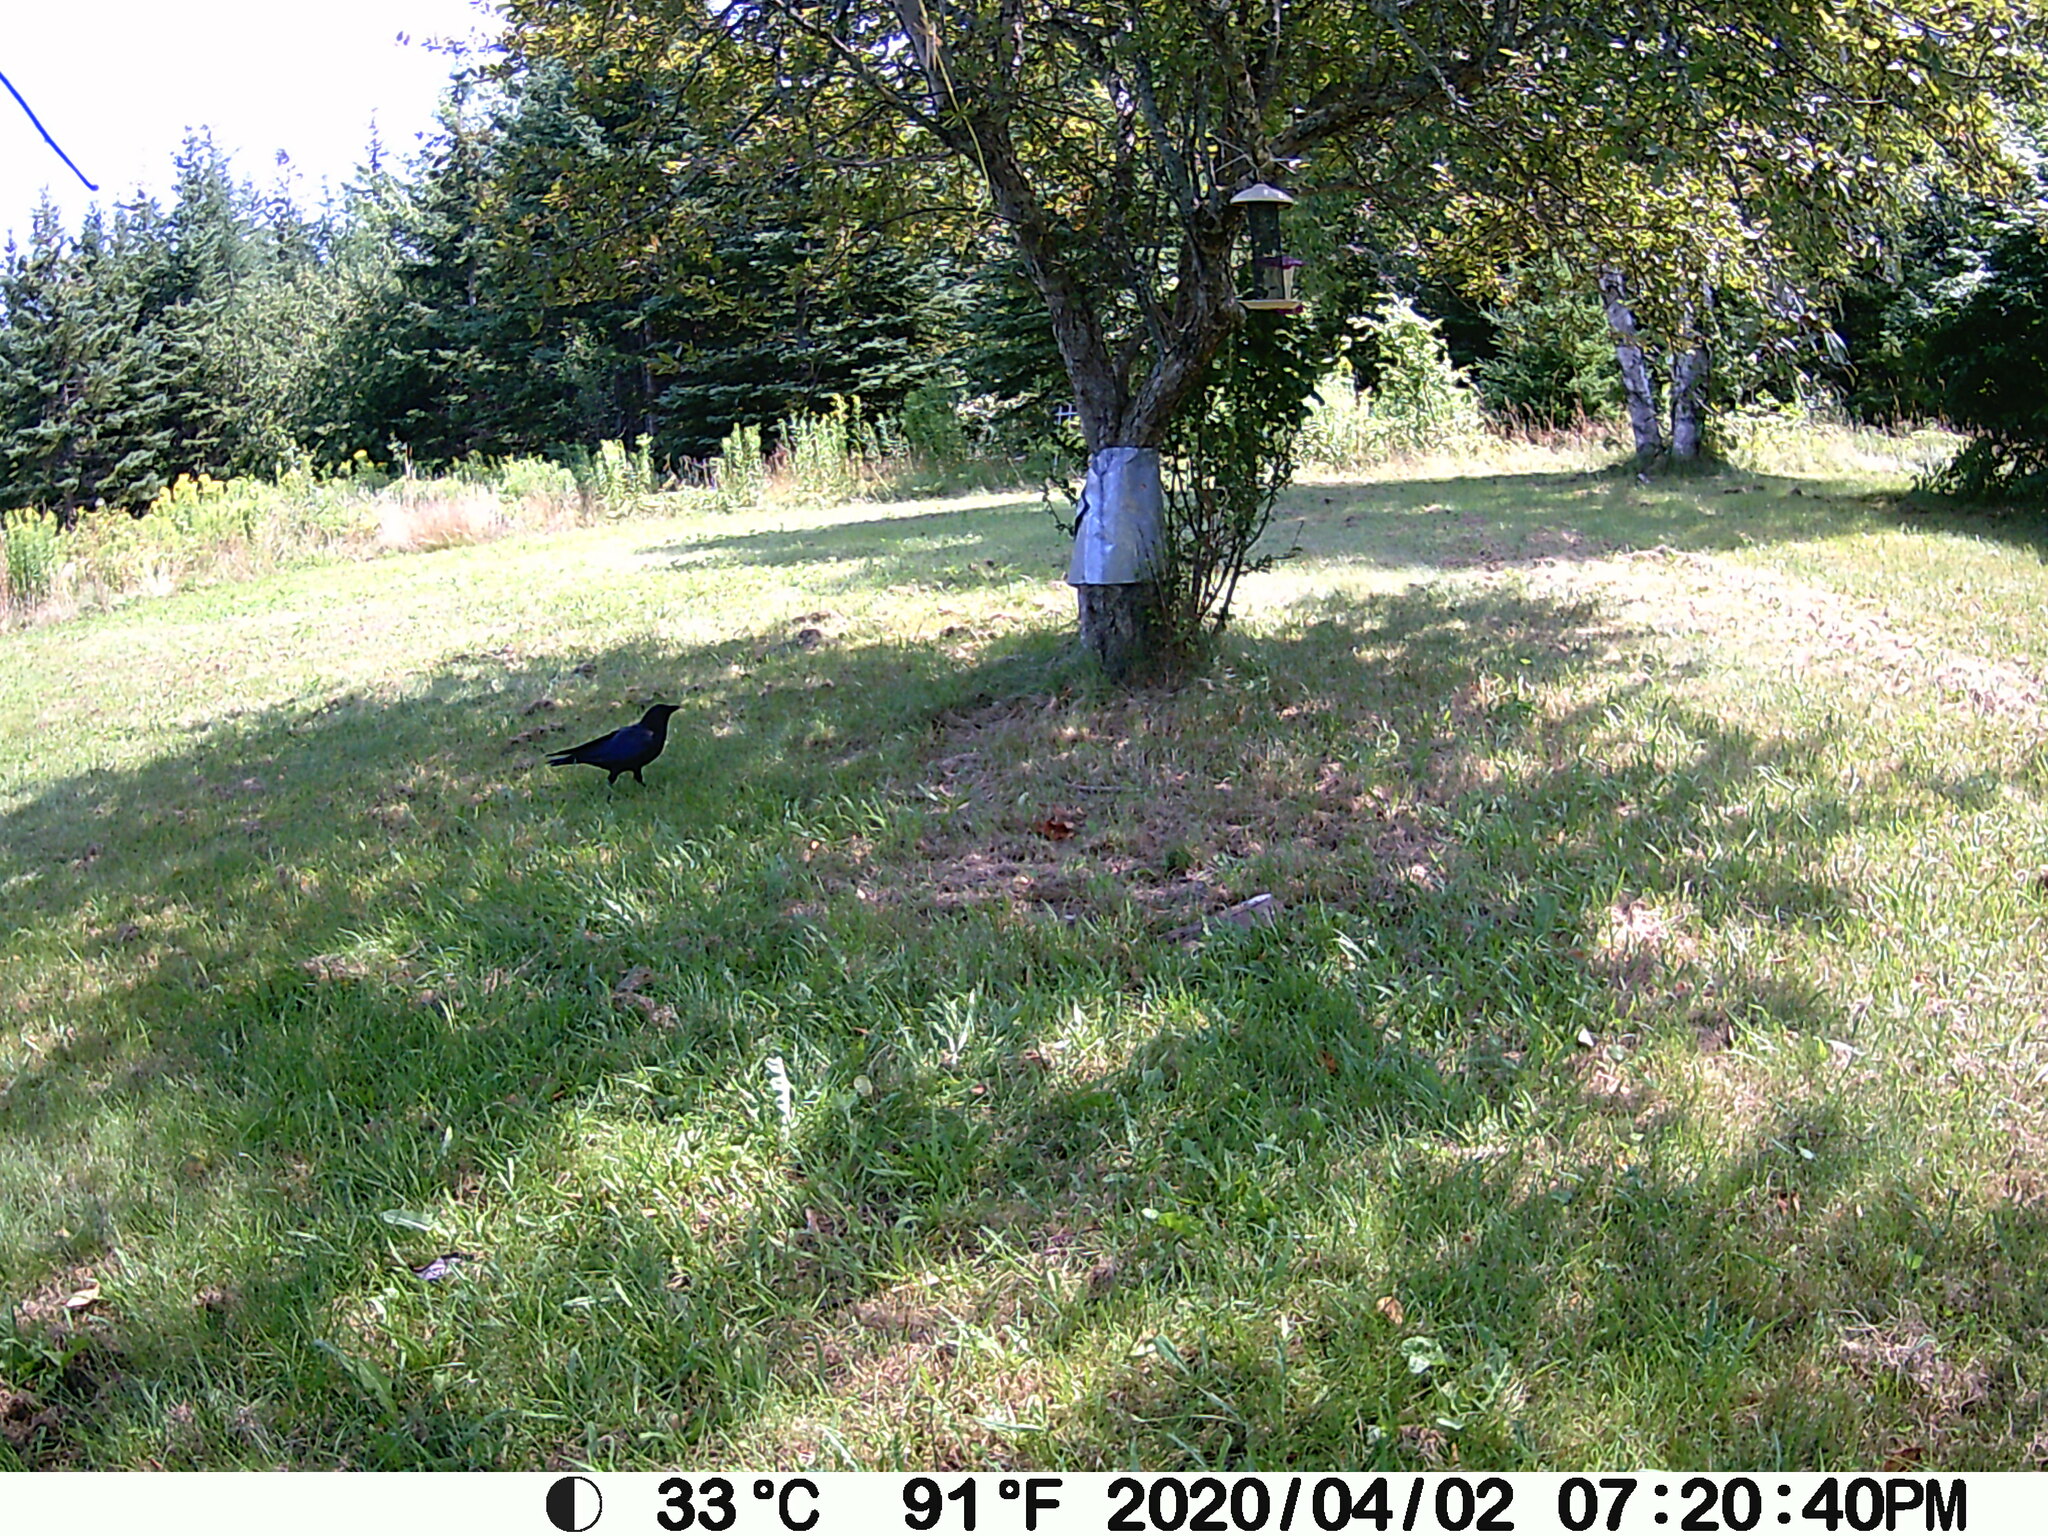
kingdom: Animalia
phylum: Chordata
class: Aves
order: Passeriformes
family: Corvidae
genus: Corvus
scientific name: Corvus brachyrhynchos
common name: American crow
